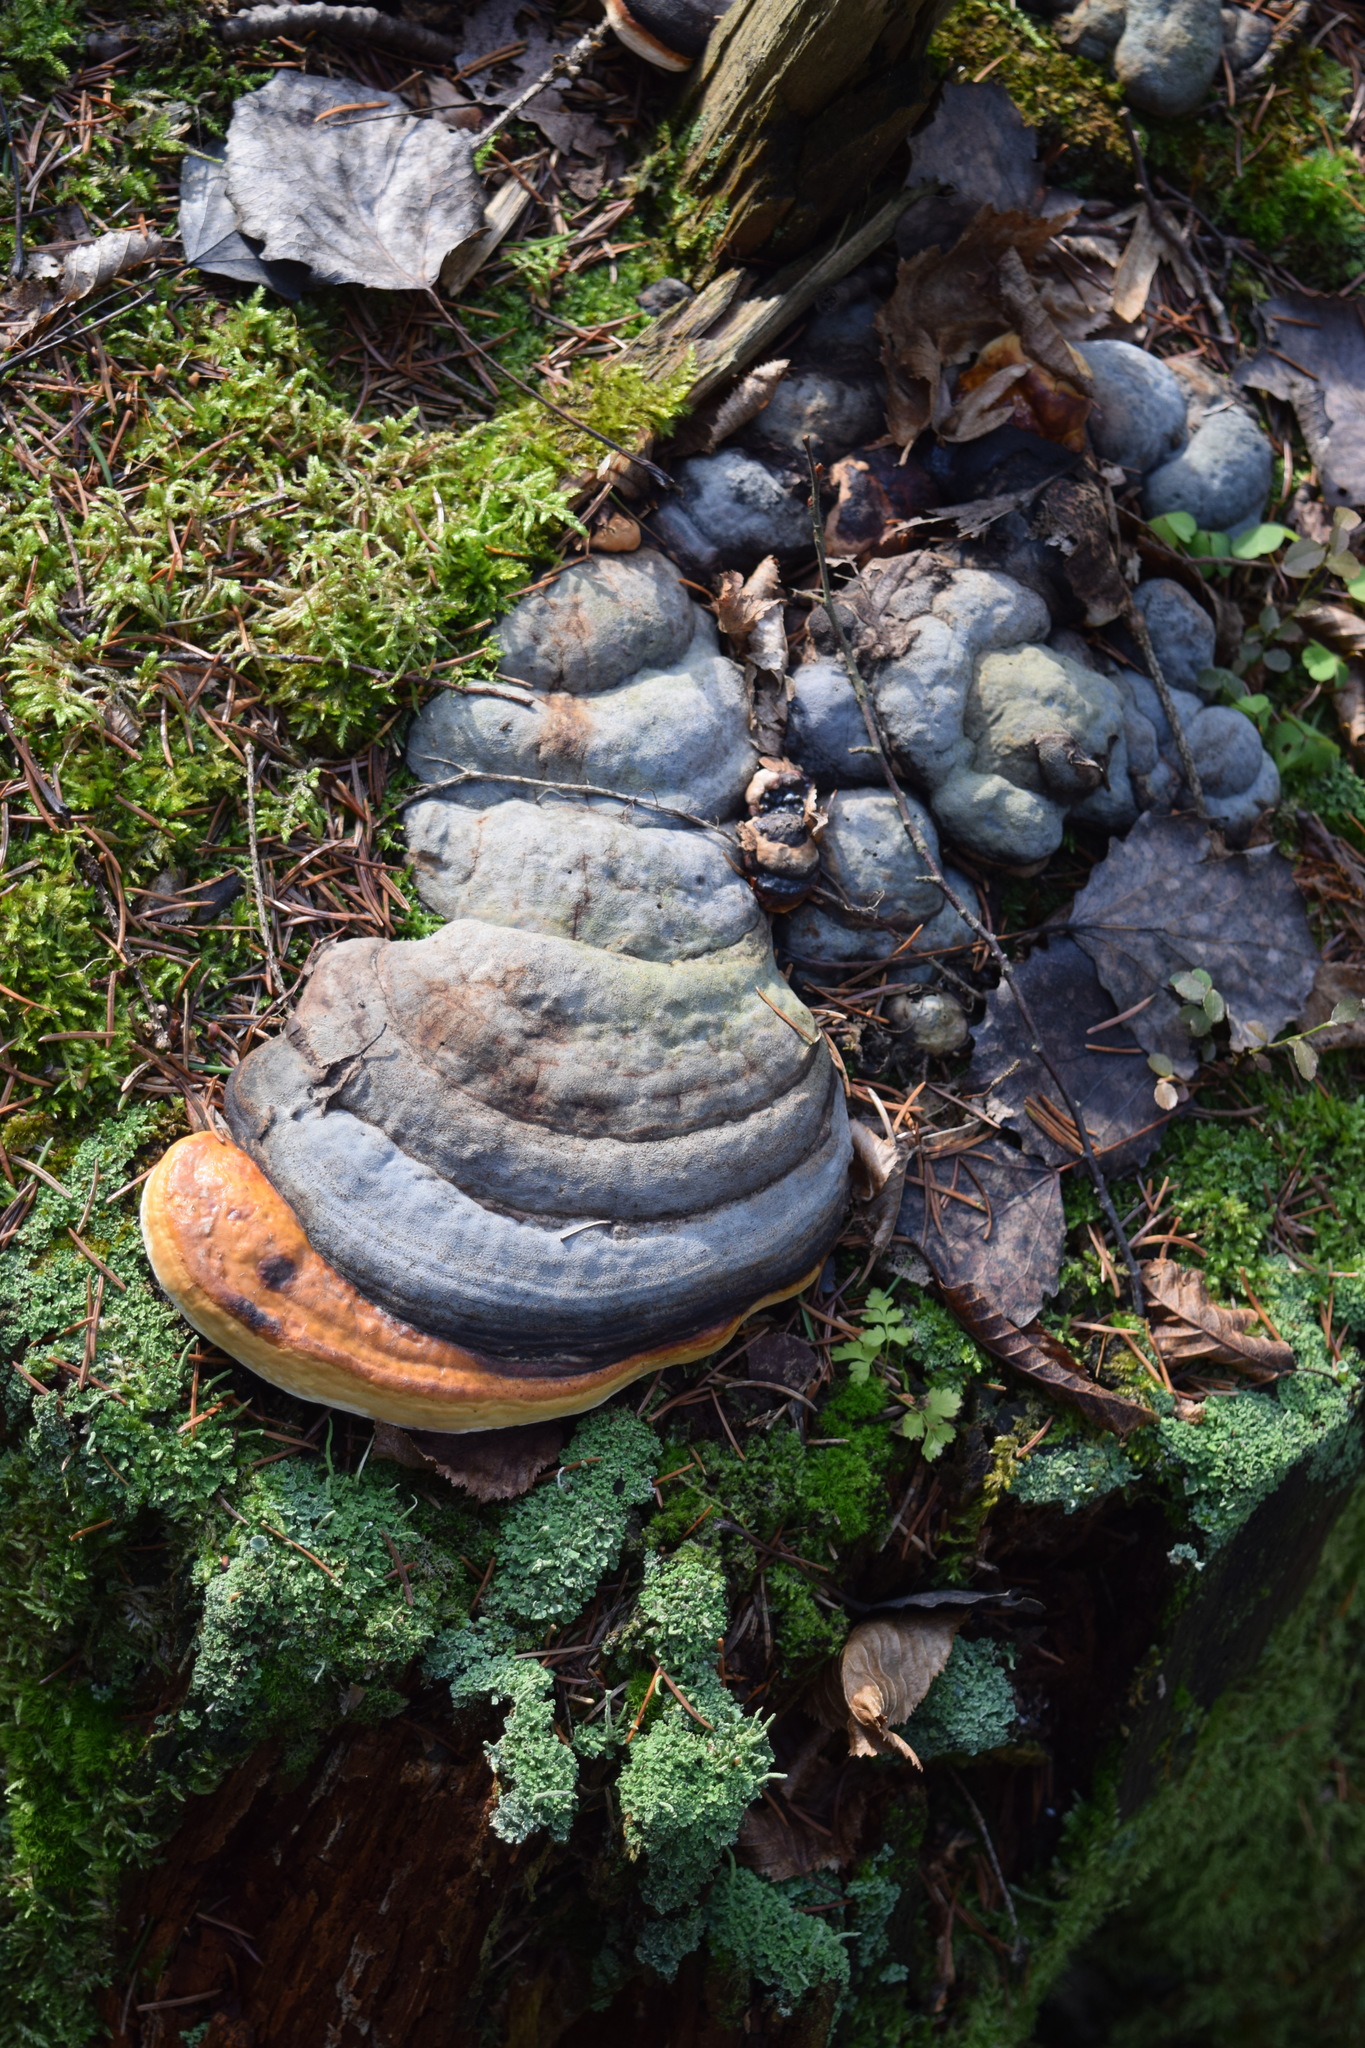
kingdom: Fungi
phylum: Basidiomycota
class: Agaricomycetes
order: Polyporales
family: Fomitopsidaceae
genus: Fomitopsis
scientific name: Fomitopsis pinicola
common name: Red-belted bracket
